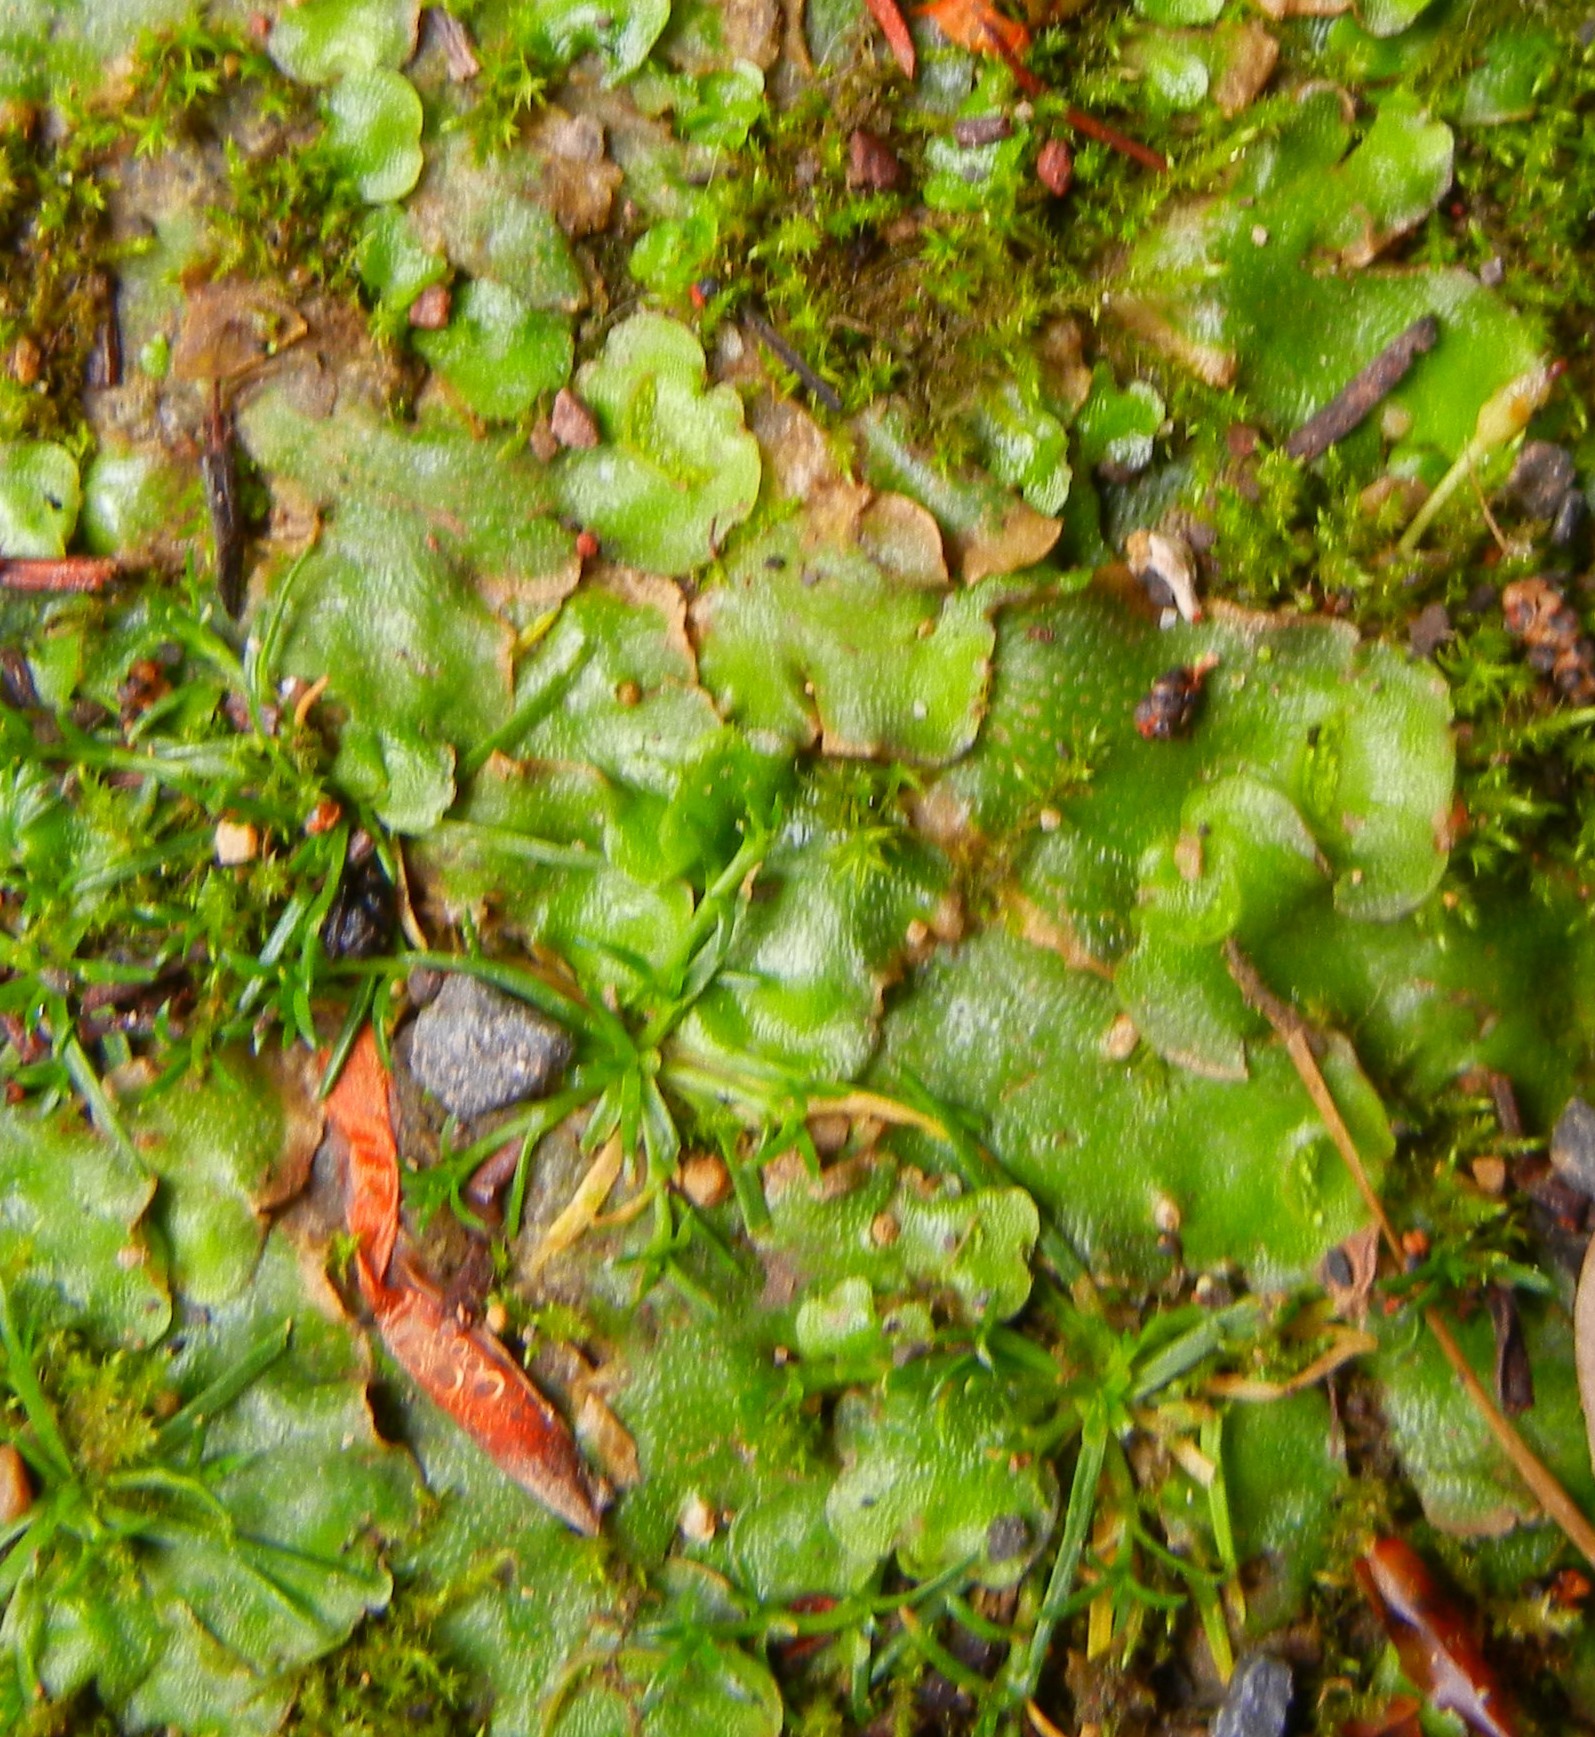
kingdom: Plantae
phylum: Marchantiophyta
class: Marchantiopsida
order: Lunulariales
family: Lunulariaceae
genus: Lunularia
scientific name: Lunularia cruciata
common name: Crescent-cup liverwort
